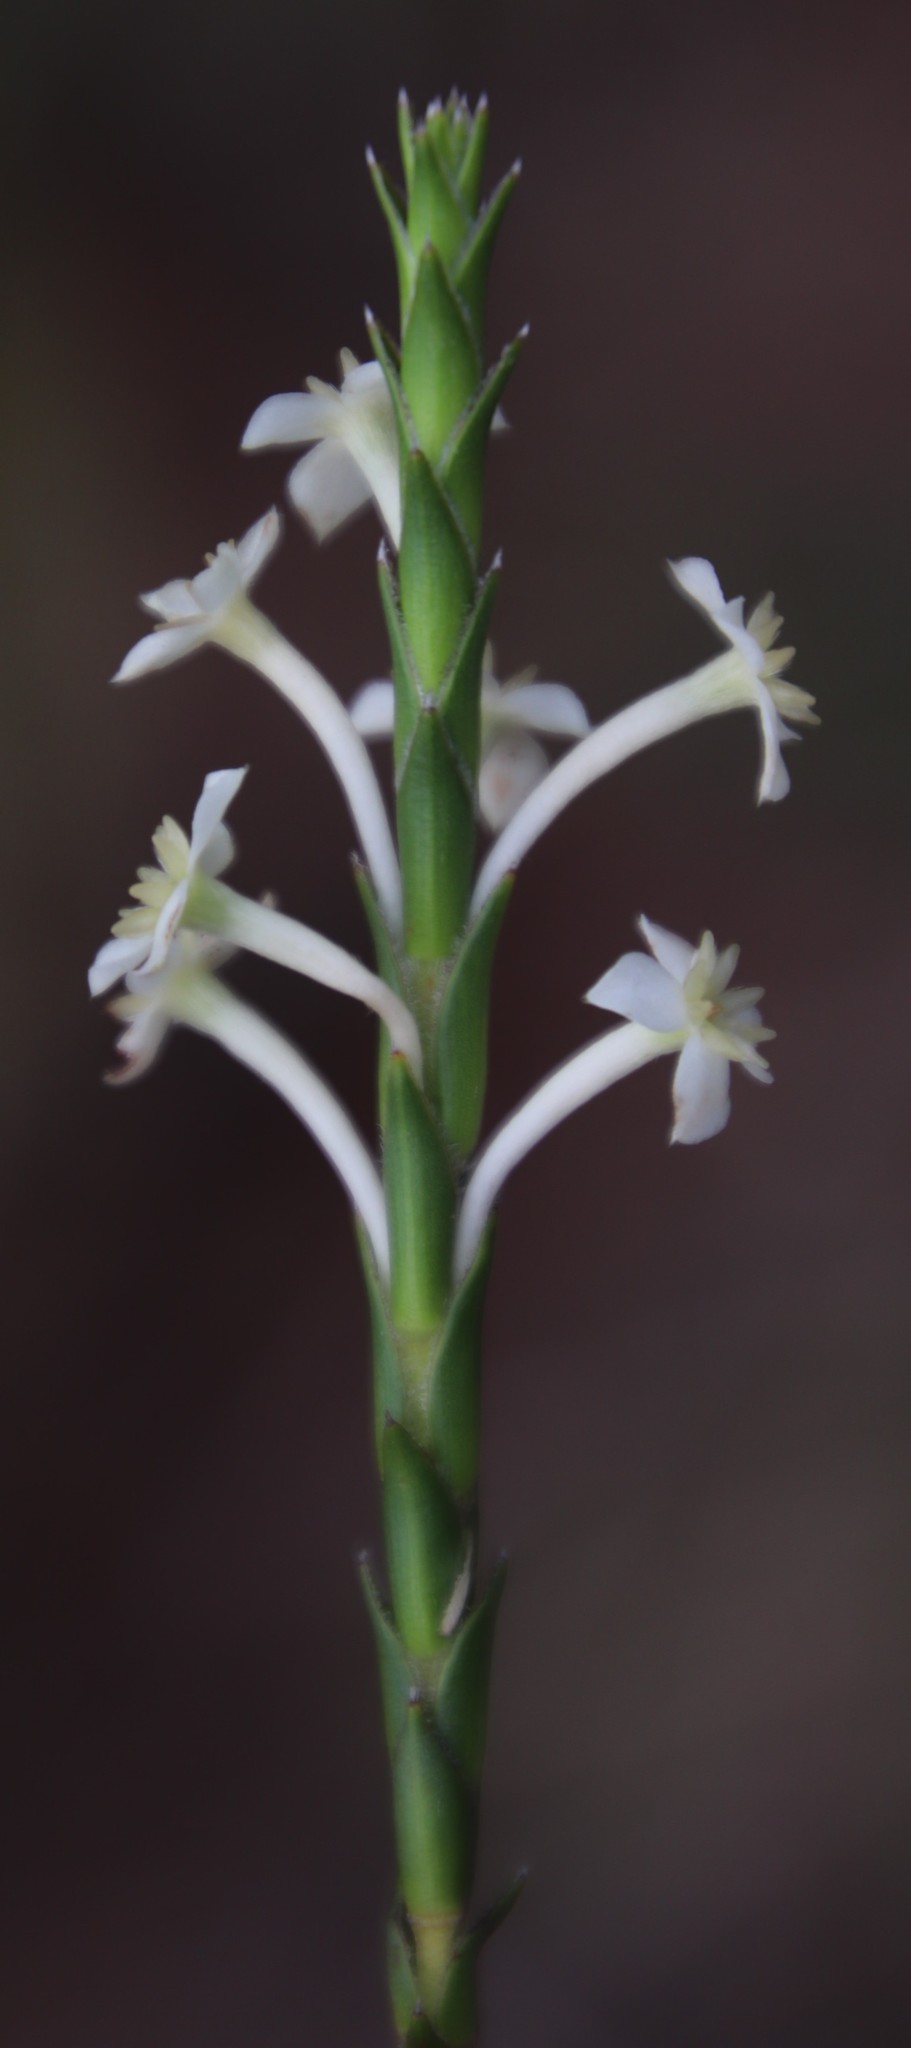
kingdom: Plantae
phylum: Tracheophyta
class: Magnoliopsida
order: Malvales
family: Thymelaeaceae
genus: Struthiola
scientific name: Struthiola ciliata
